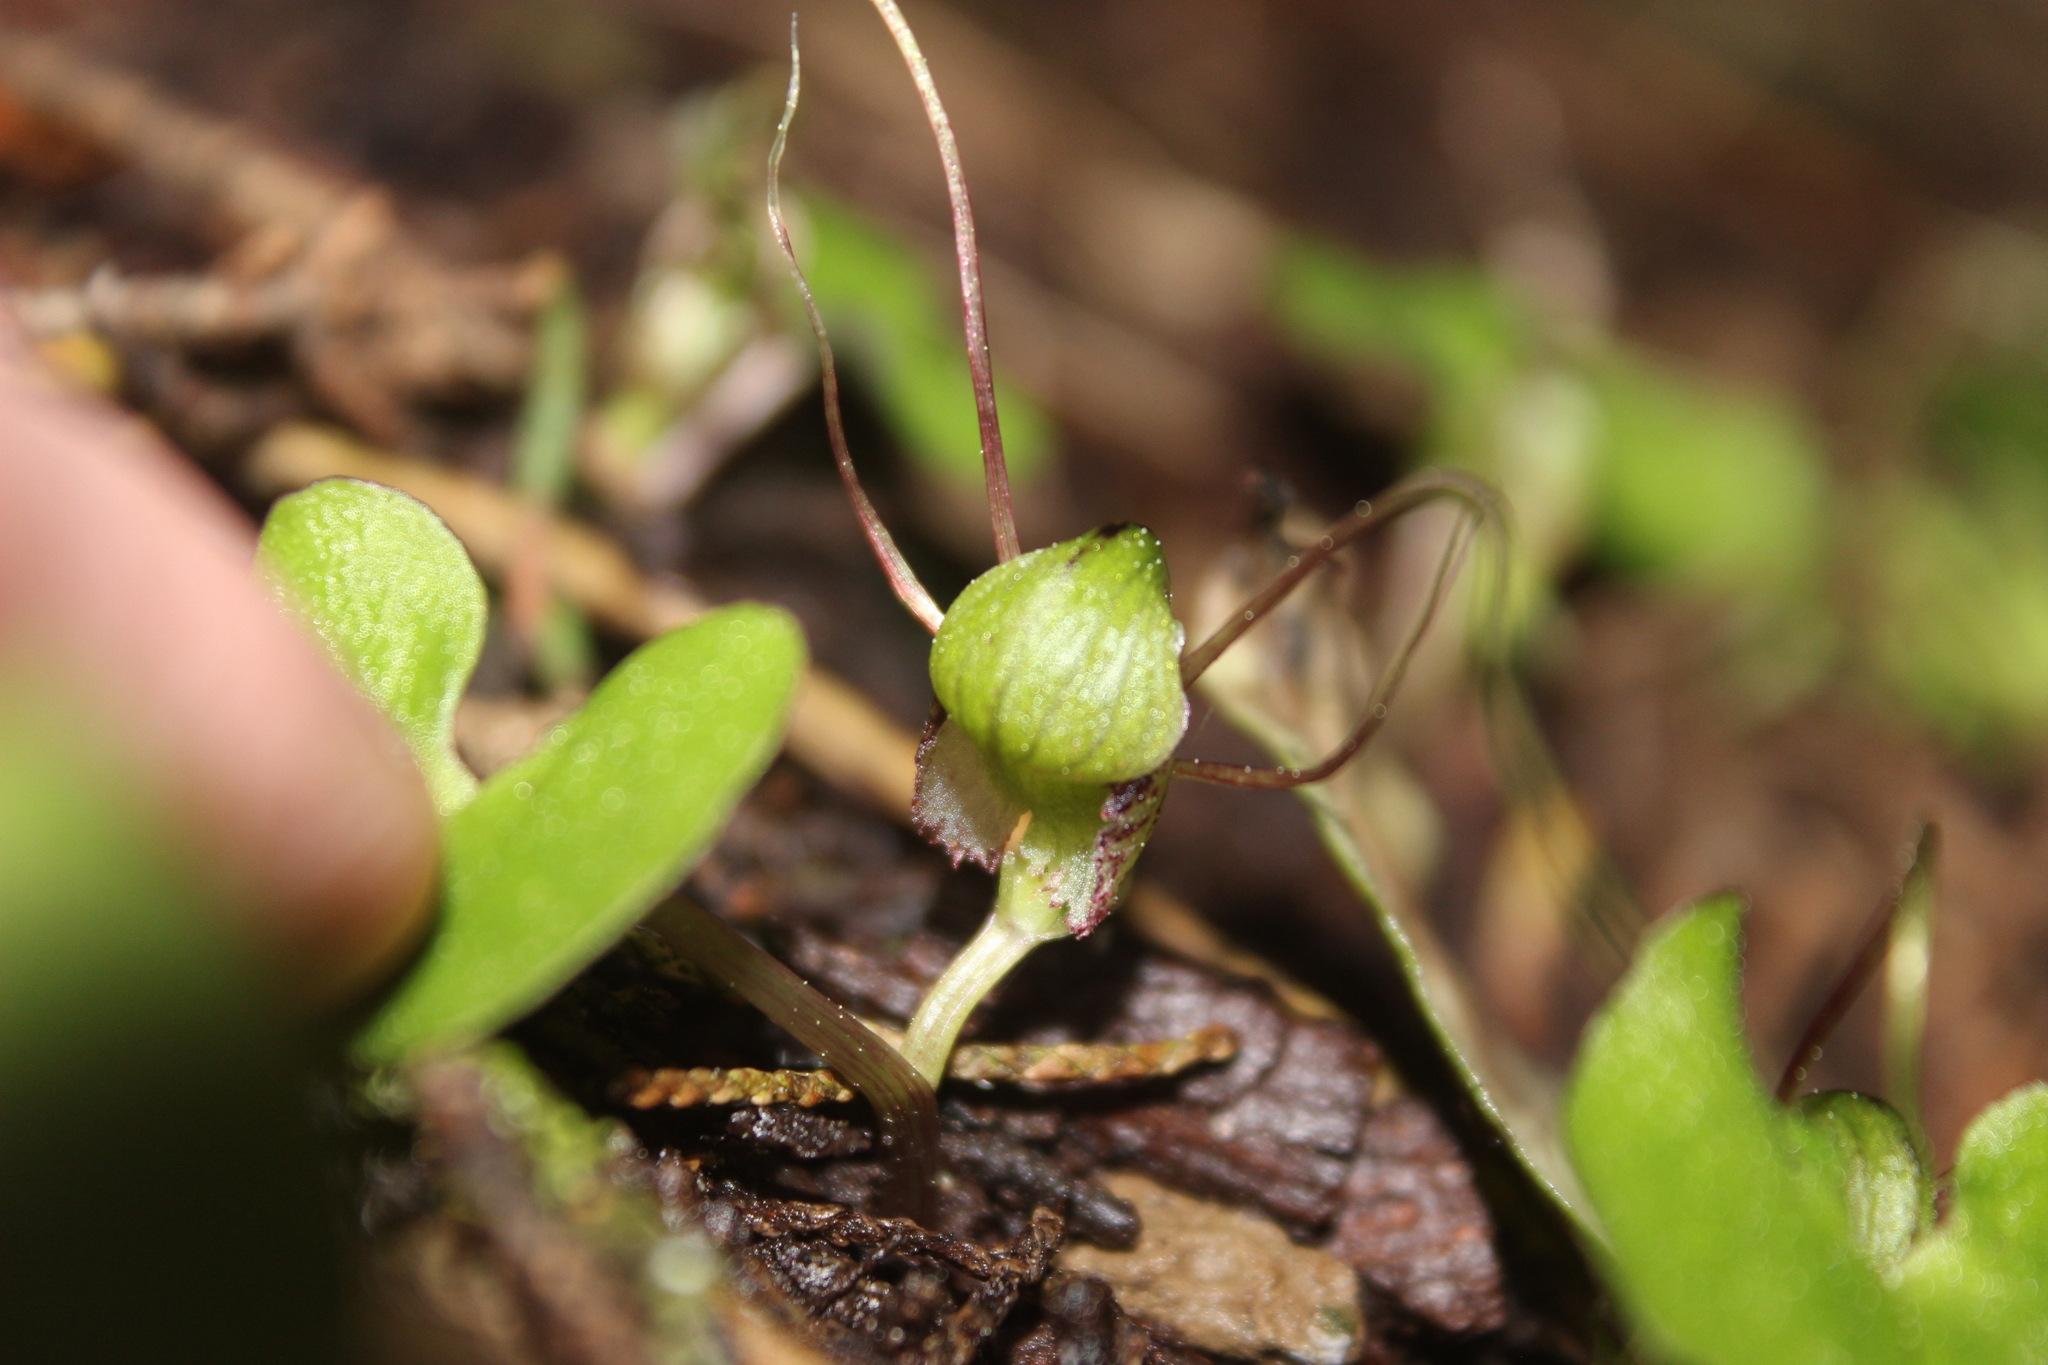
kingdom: Plantae
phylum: Tracheophyta
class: Liliopsida
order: Asparagales
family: Orchidaceae
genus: Corybas
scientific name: Corybas vitreus
